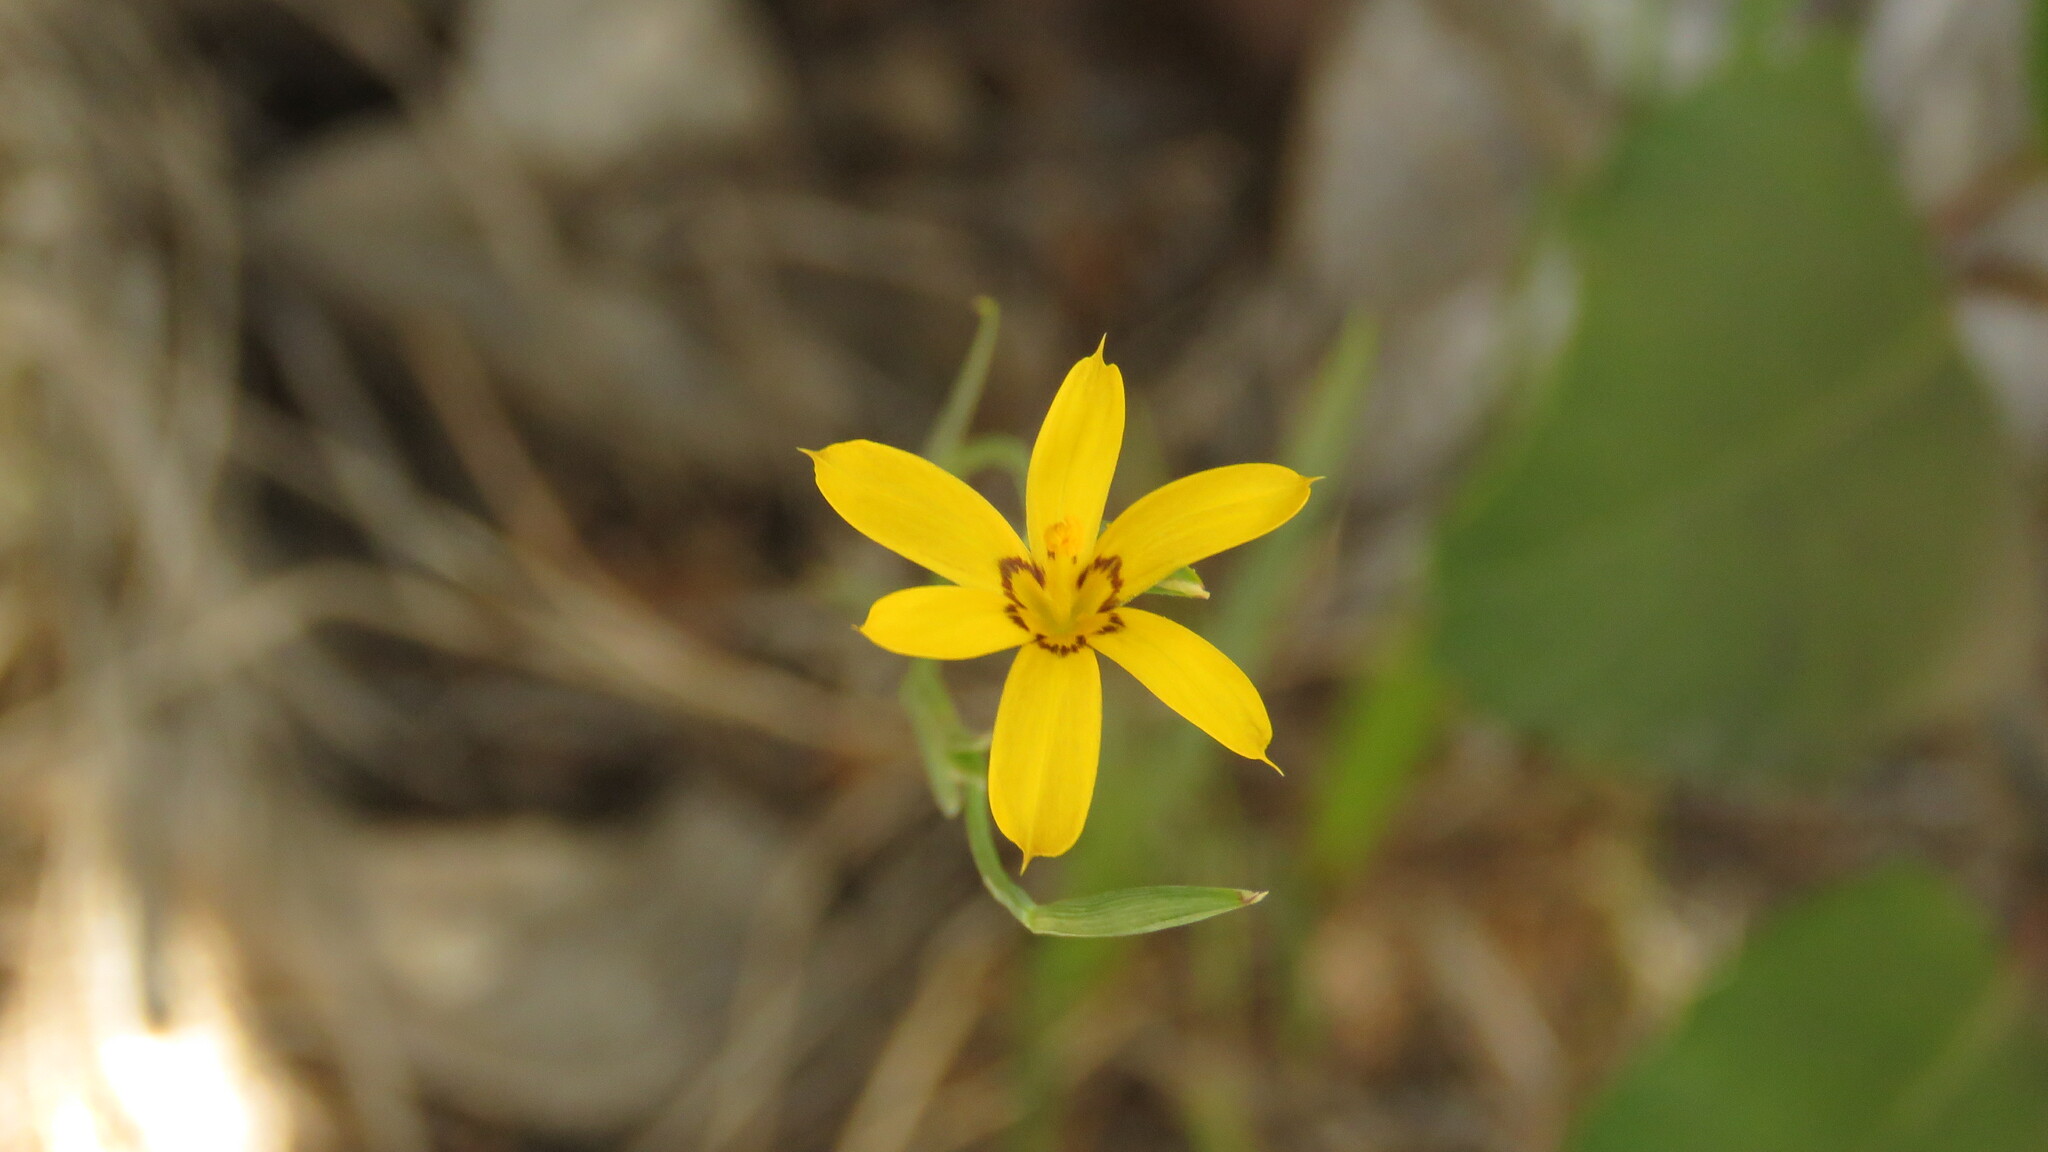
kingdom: Plantae
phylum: Tracheophyta
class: Liliopsida
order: Asparagales
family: Iridaceae
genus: Sisyrinchium
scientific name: Sisyrinchium patagonicum
